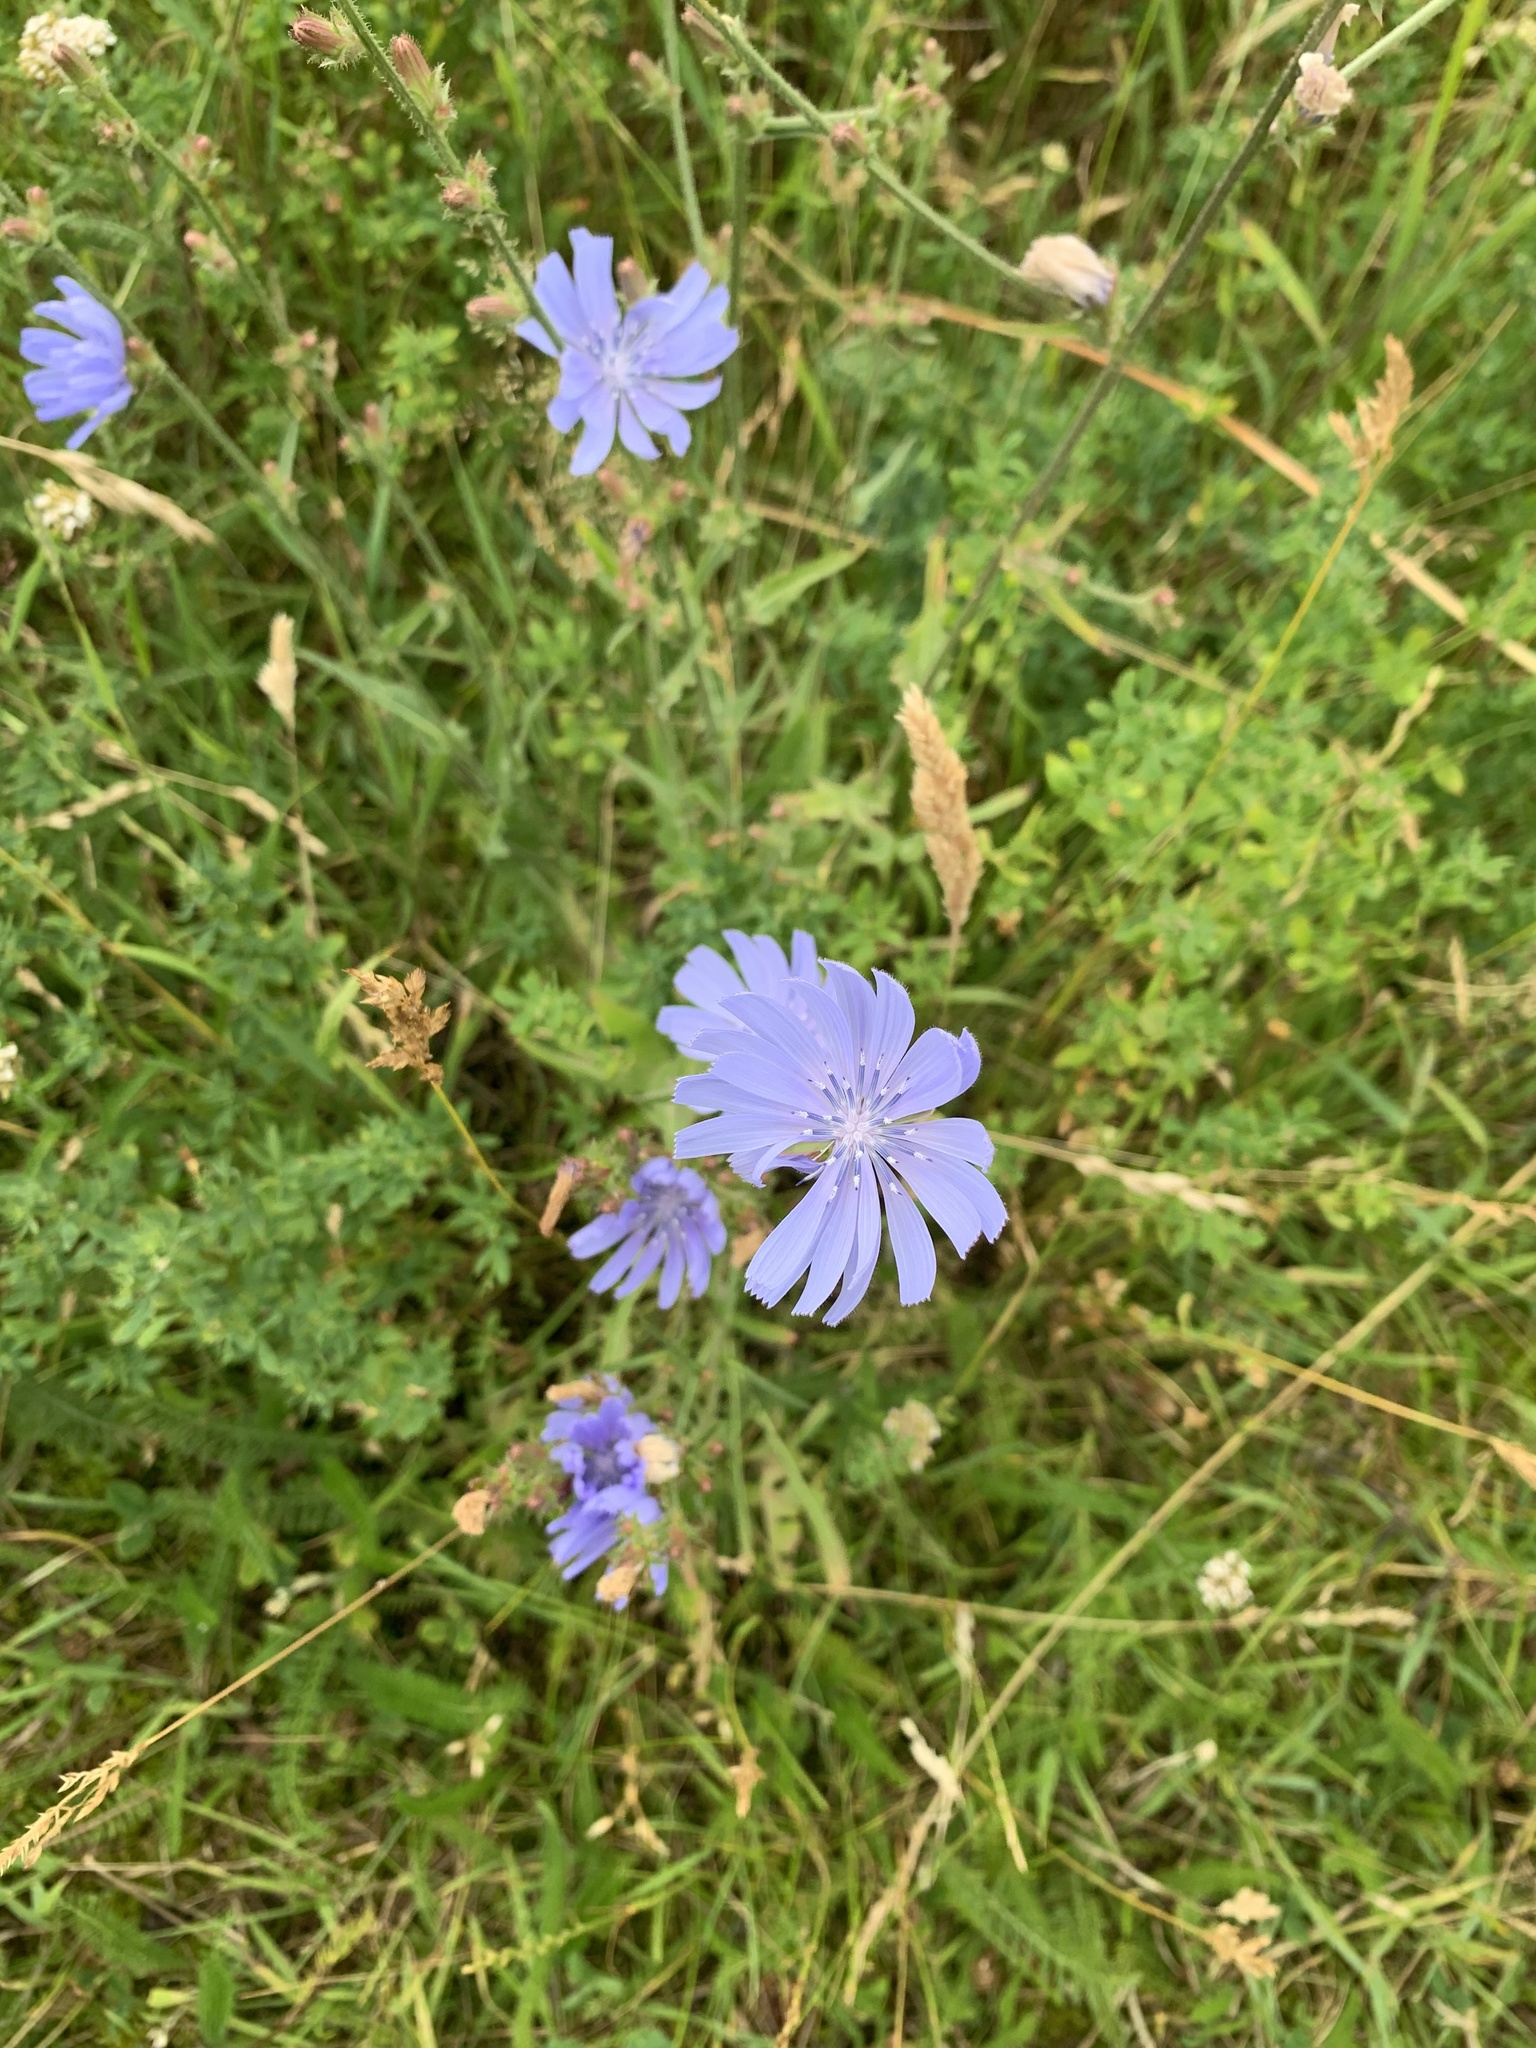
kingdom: Plantae
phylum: Tracheophyta
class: Magnoliopsida
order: Asterales
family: Asteraceae
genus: Cichorium
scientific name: Cichorium intybus
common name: Chicory
